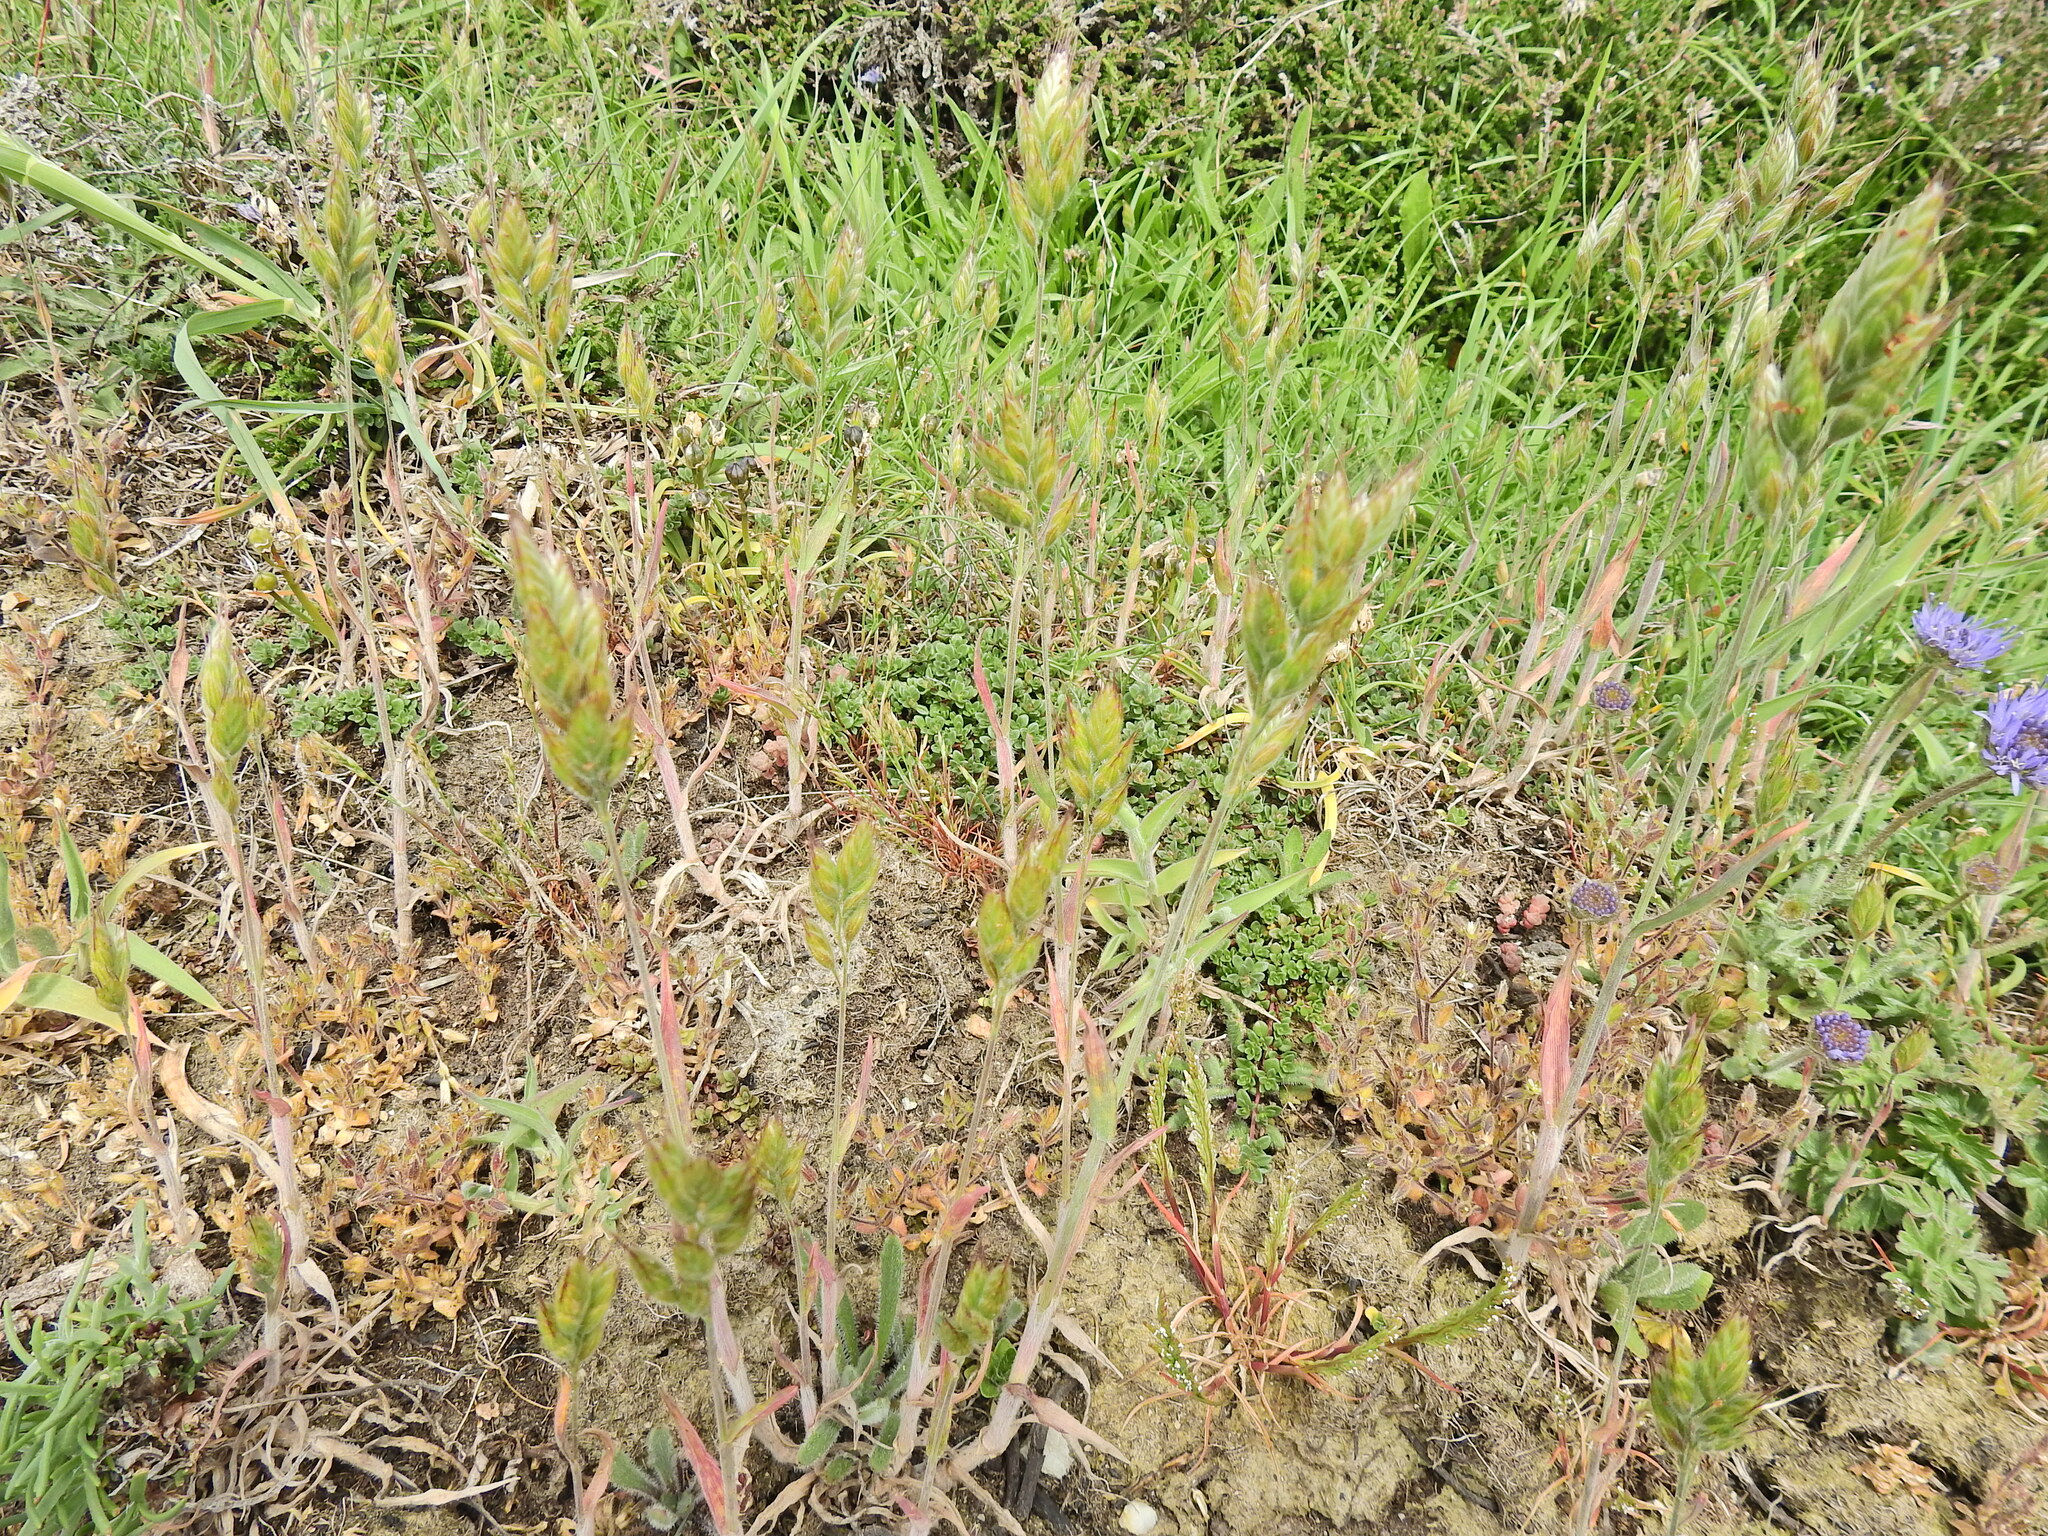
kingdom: Plantae
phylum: Tracheophyta
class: Liliopsida
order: Poales
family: Poaceae
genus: Bromus
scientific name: Bromus hordeaceus
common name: Soft brome
